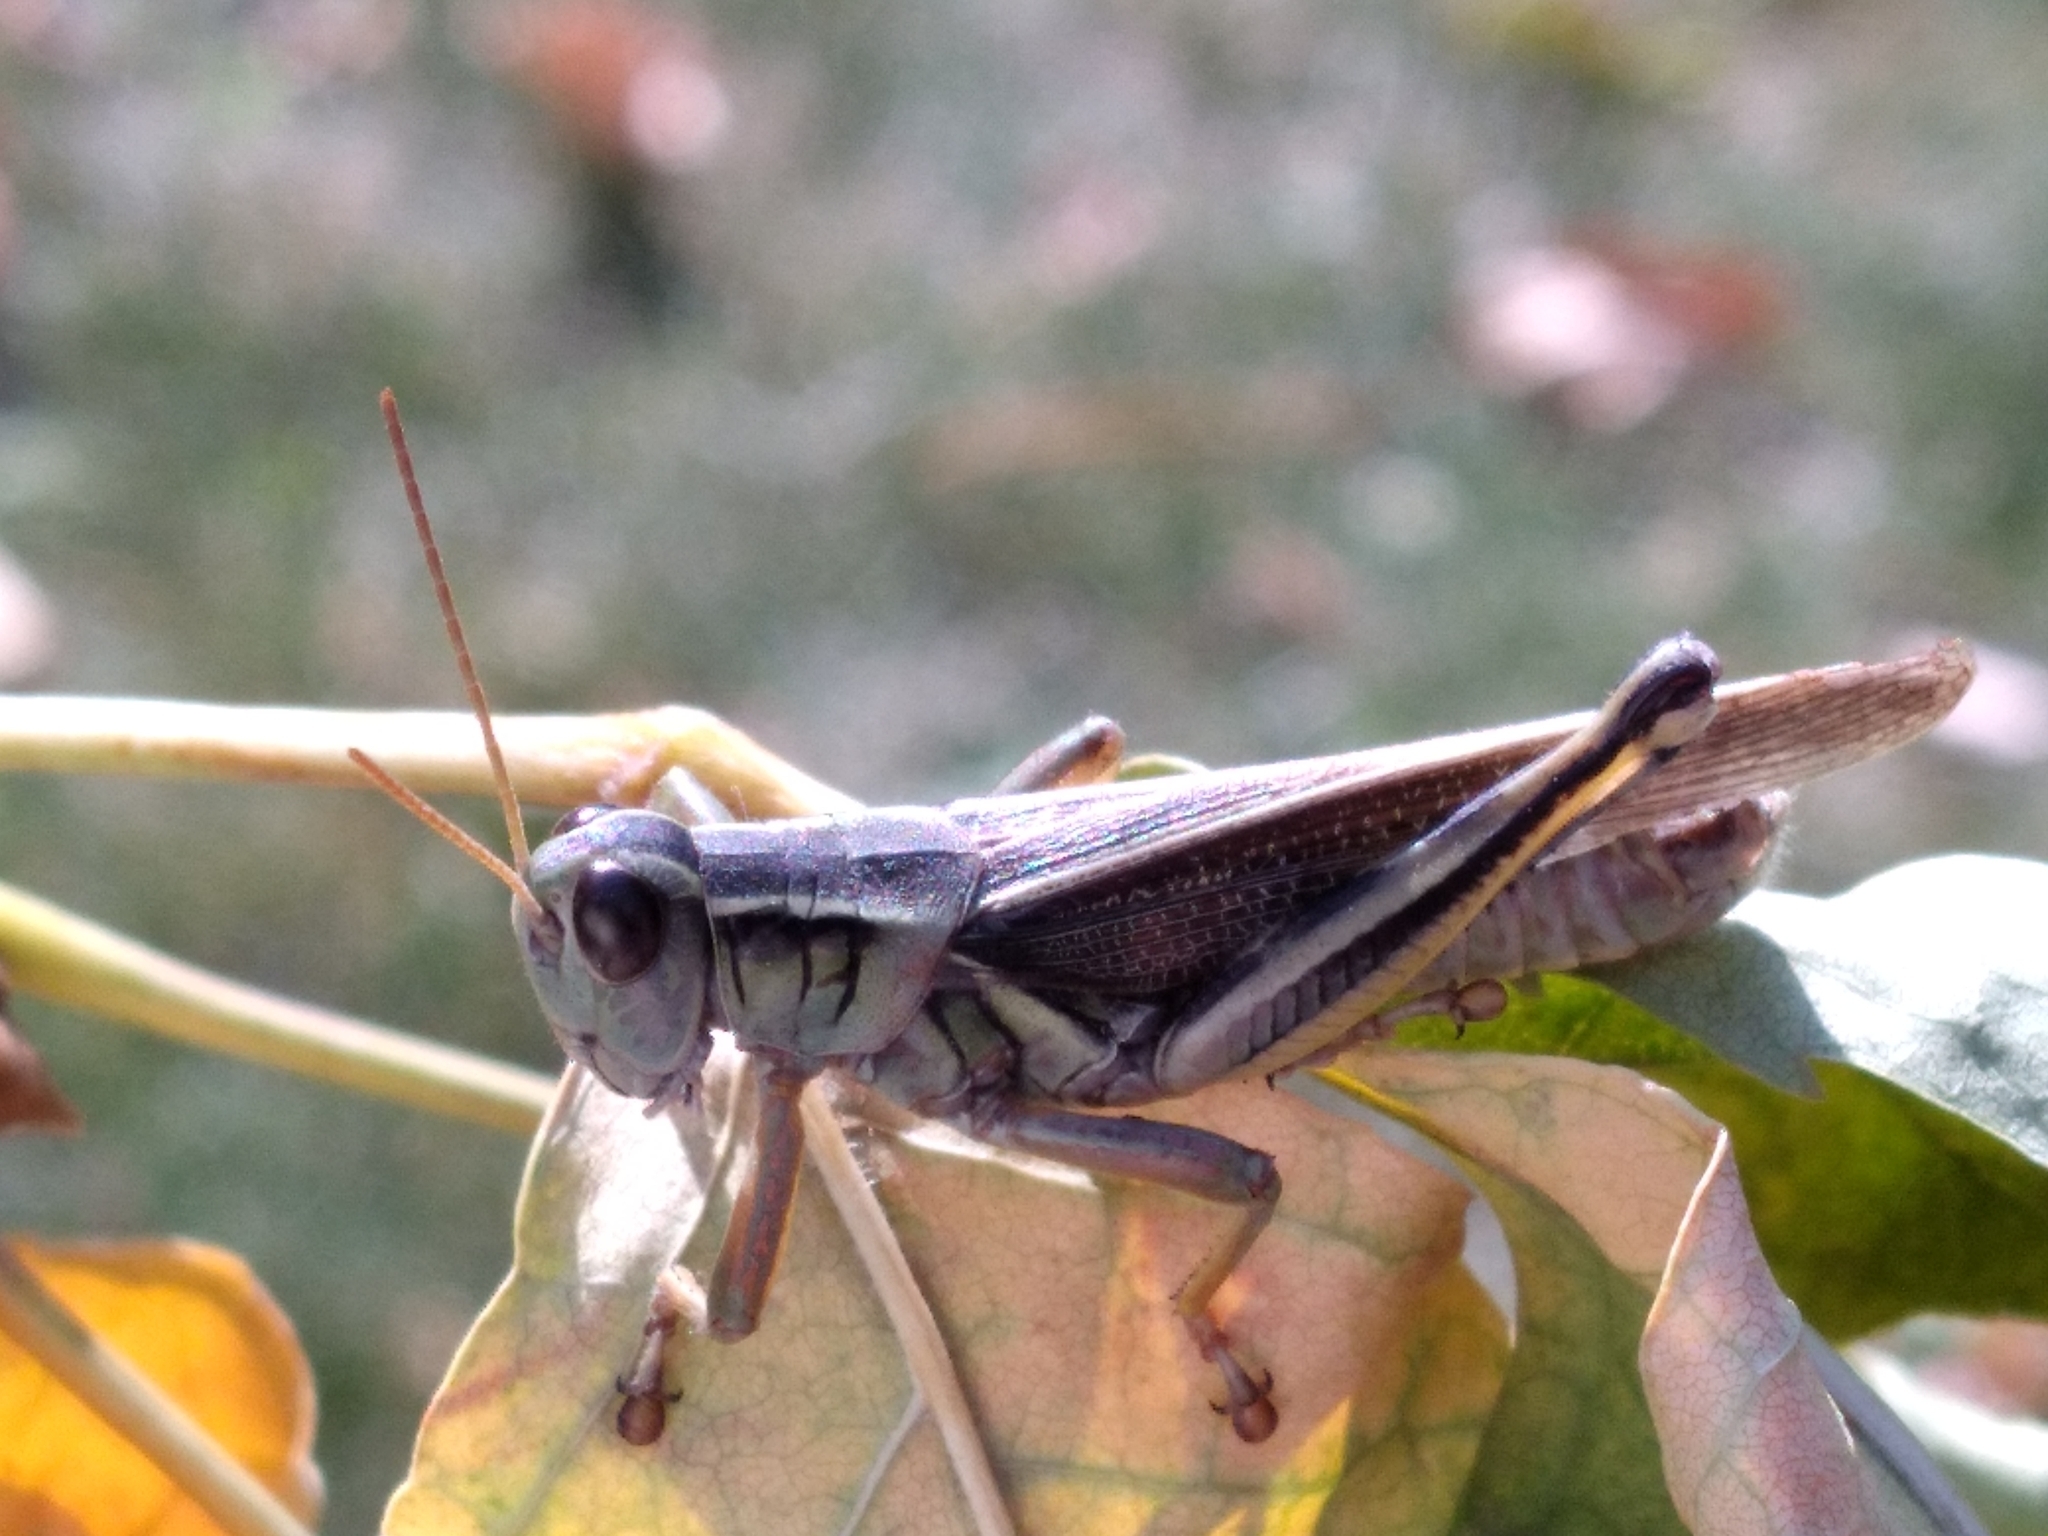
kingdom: Animalia
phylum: Arthropoda
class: Insecta
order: Orthoptera
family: Acrididae
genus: Melanoplus
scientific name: Melanoplus bivittatus
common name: Two-striped grasshopper
